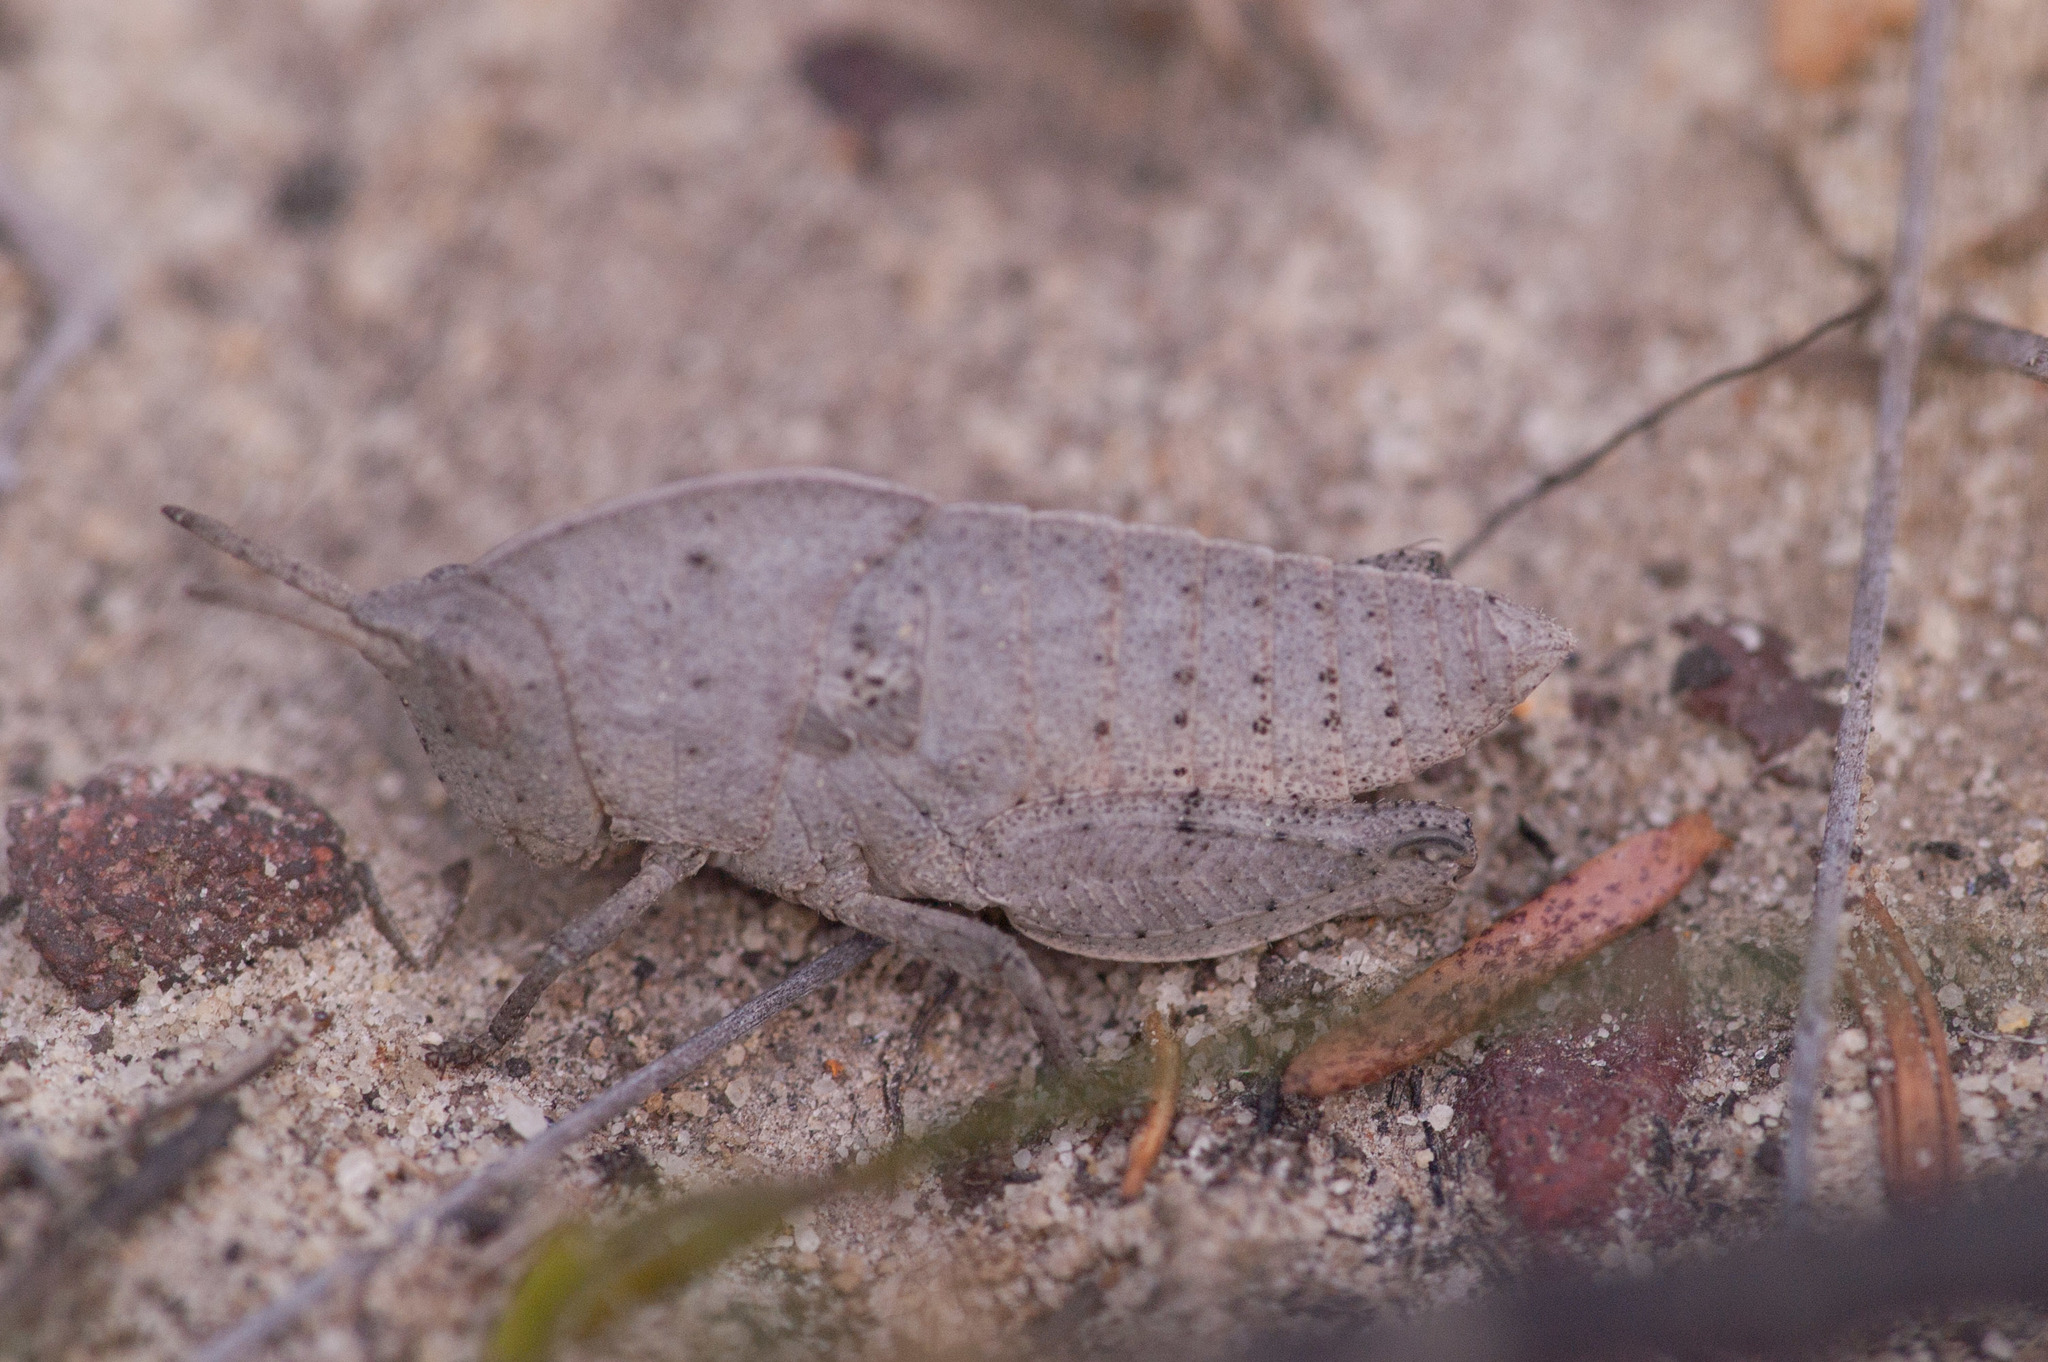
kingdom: Animalia
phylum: Arthropoda
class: Insecta
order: Orthoptera
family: Acrididae
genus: Goniaea
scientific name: Goniaea australasiae
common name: Gumleaf grasshopper
